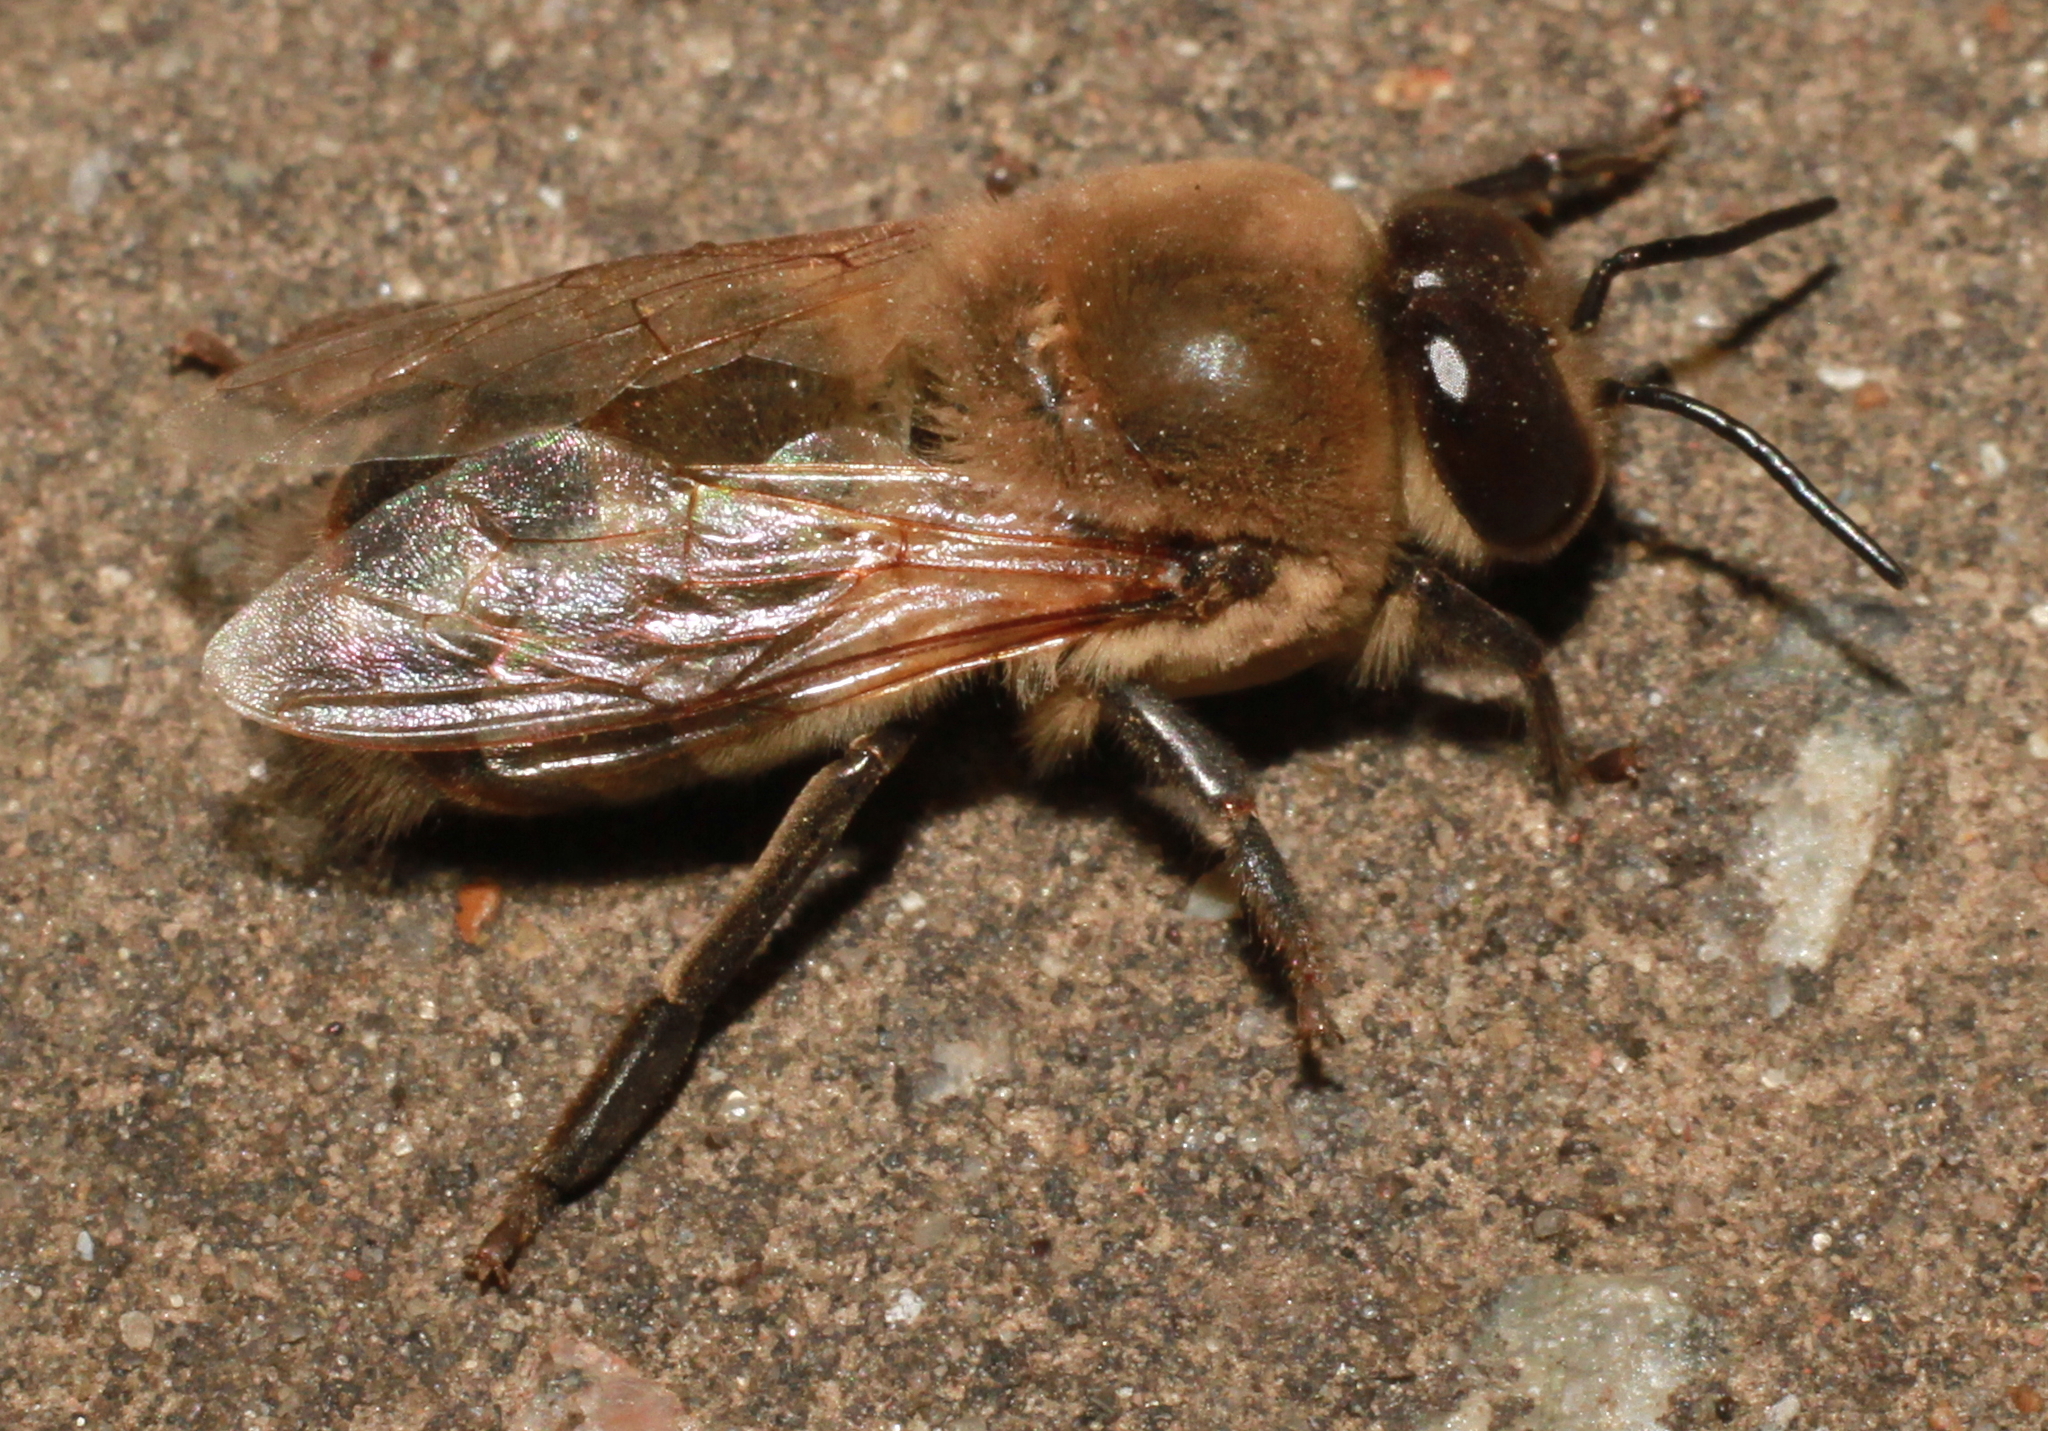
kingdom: Animalia
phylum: Arthropoda
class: Insecta
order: Hymenoptera
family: Apidae
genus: Apis
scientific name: Apis mellifera
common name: Honey bee
